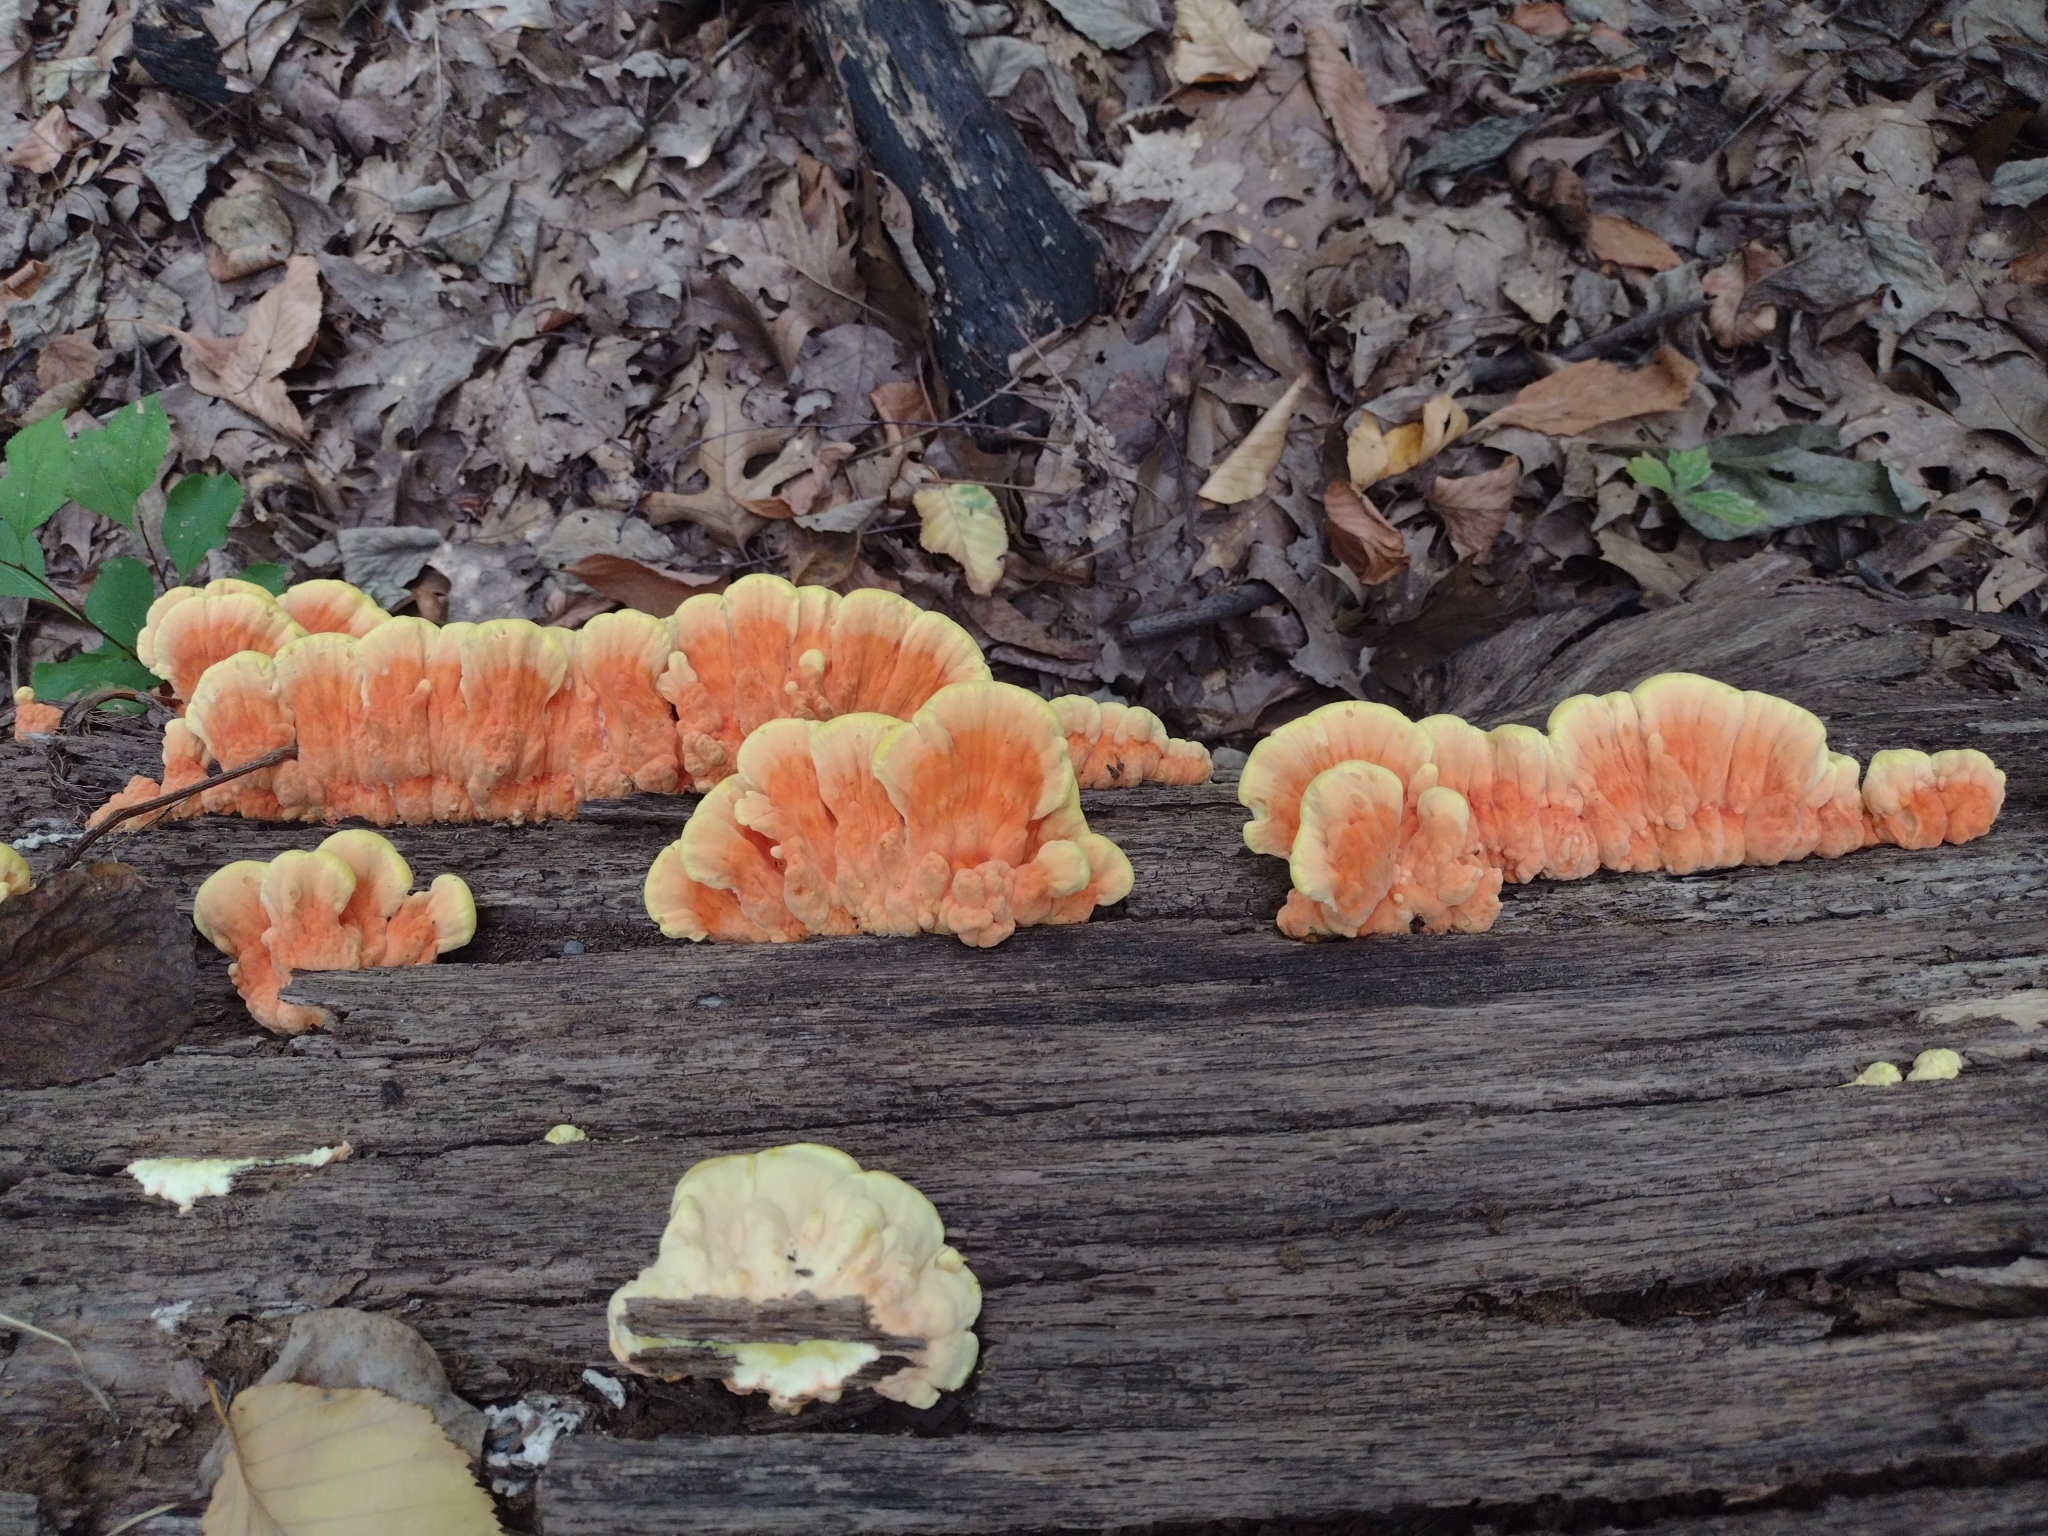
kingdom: Fungi
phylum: Basidiomycota
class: Agaricomycetes
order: Polyporales
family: Laetiporaceae
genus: Laetiporus
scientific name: Laetiporus sulphureus
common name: Chicken of the woods
